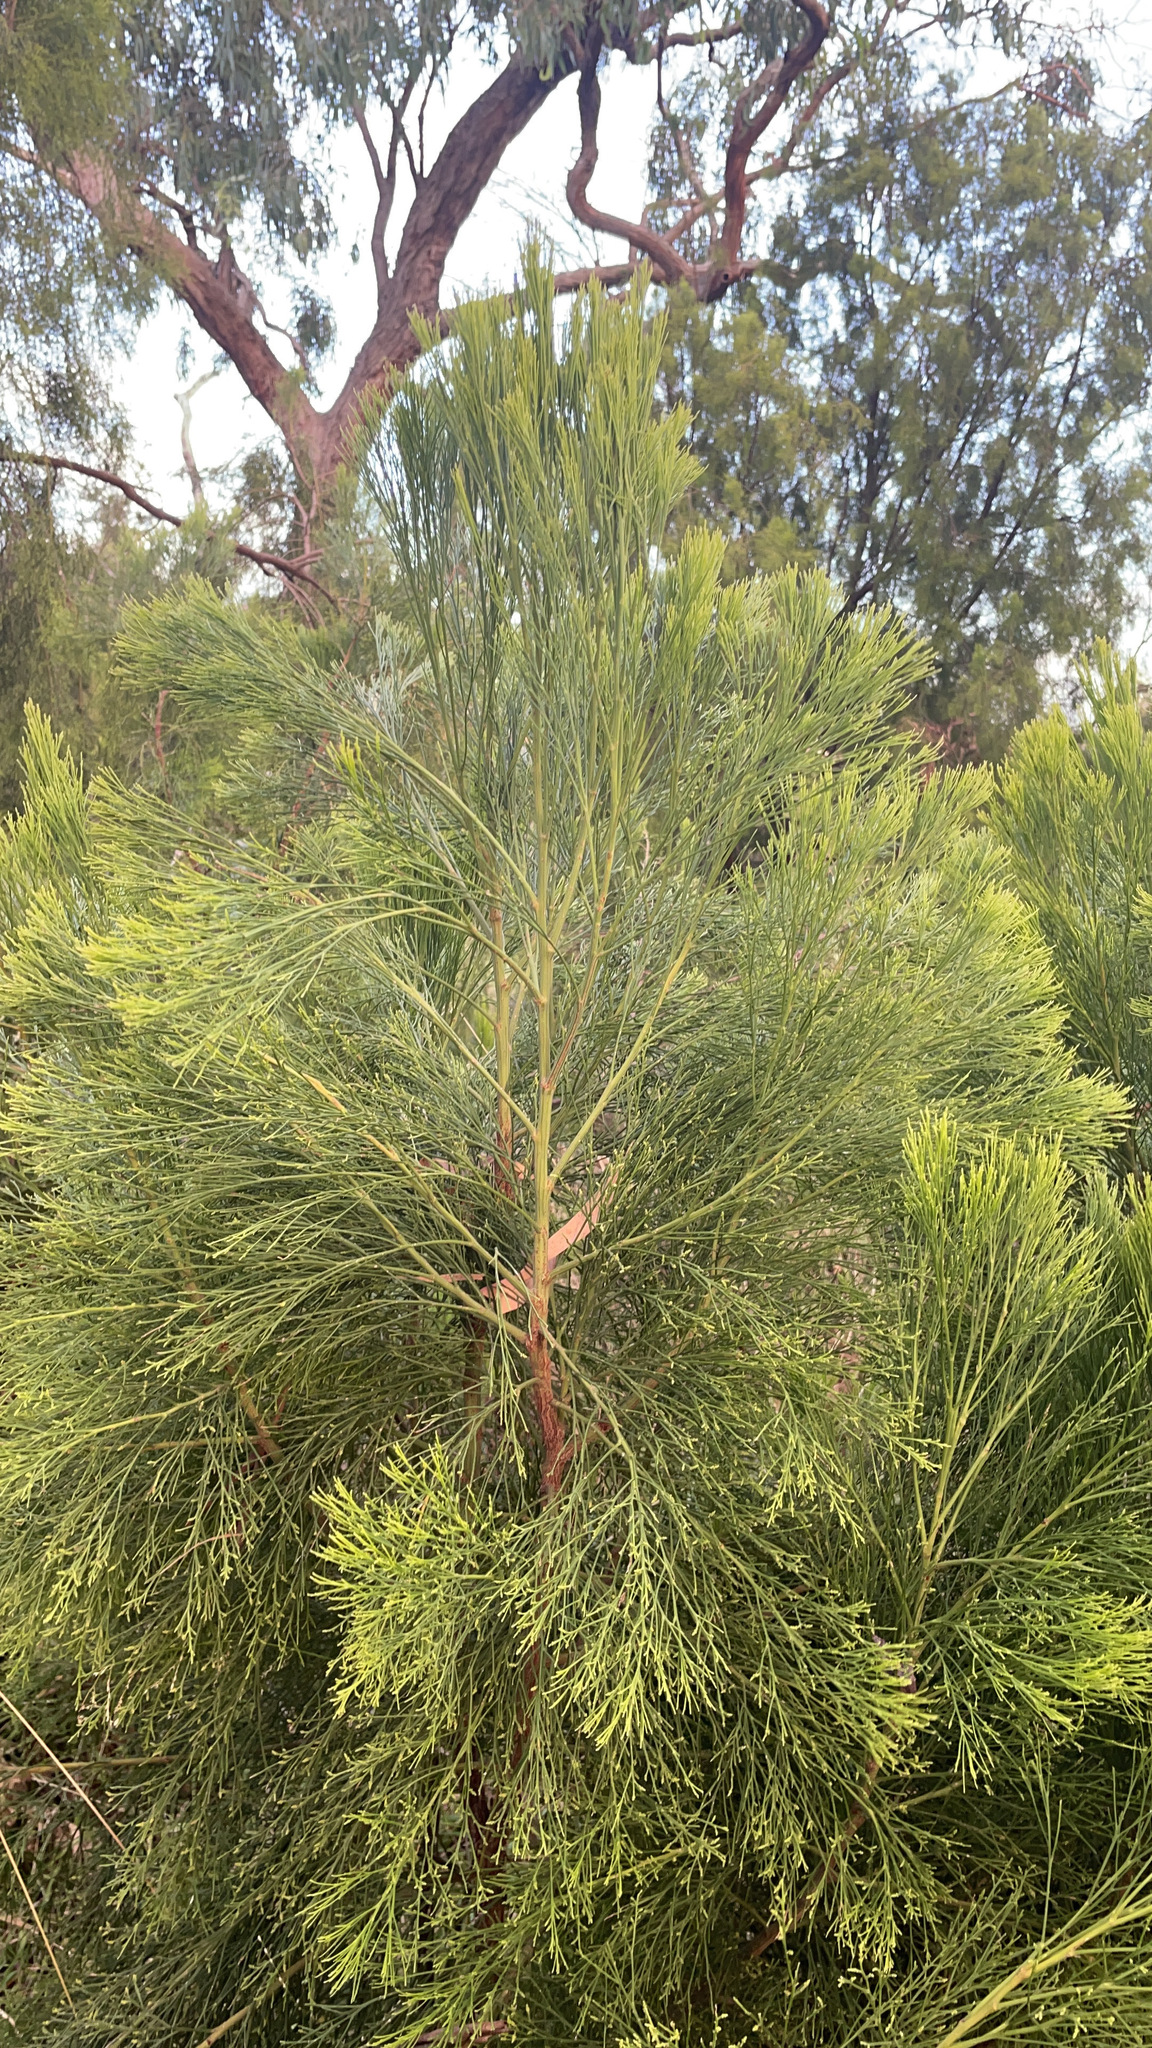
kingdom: Plantae
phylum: Tracheophyta
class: Magnoliopsida
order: Santalales
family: Santalaceae
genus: Exocarpos
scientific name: Exocarpos cupressiformis
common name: Cherry ballart
